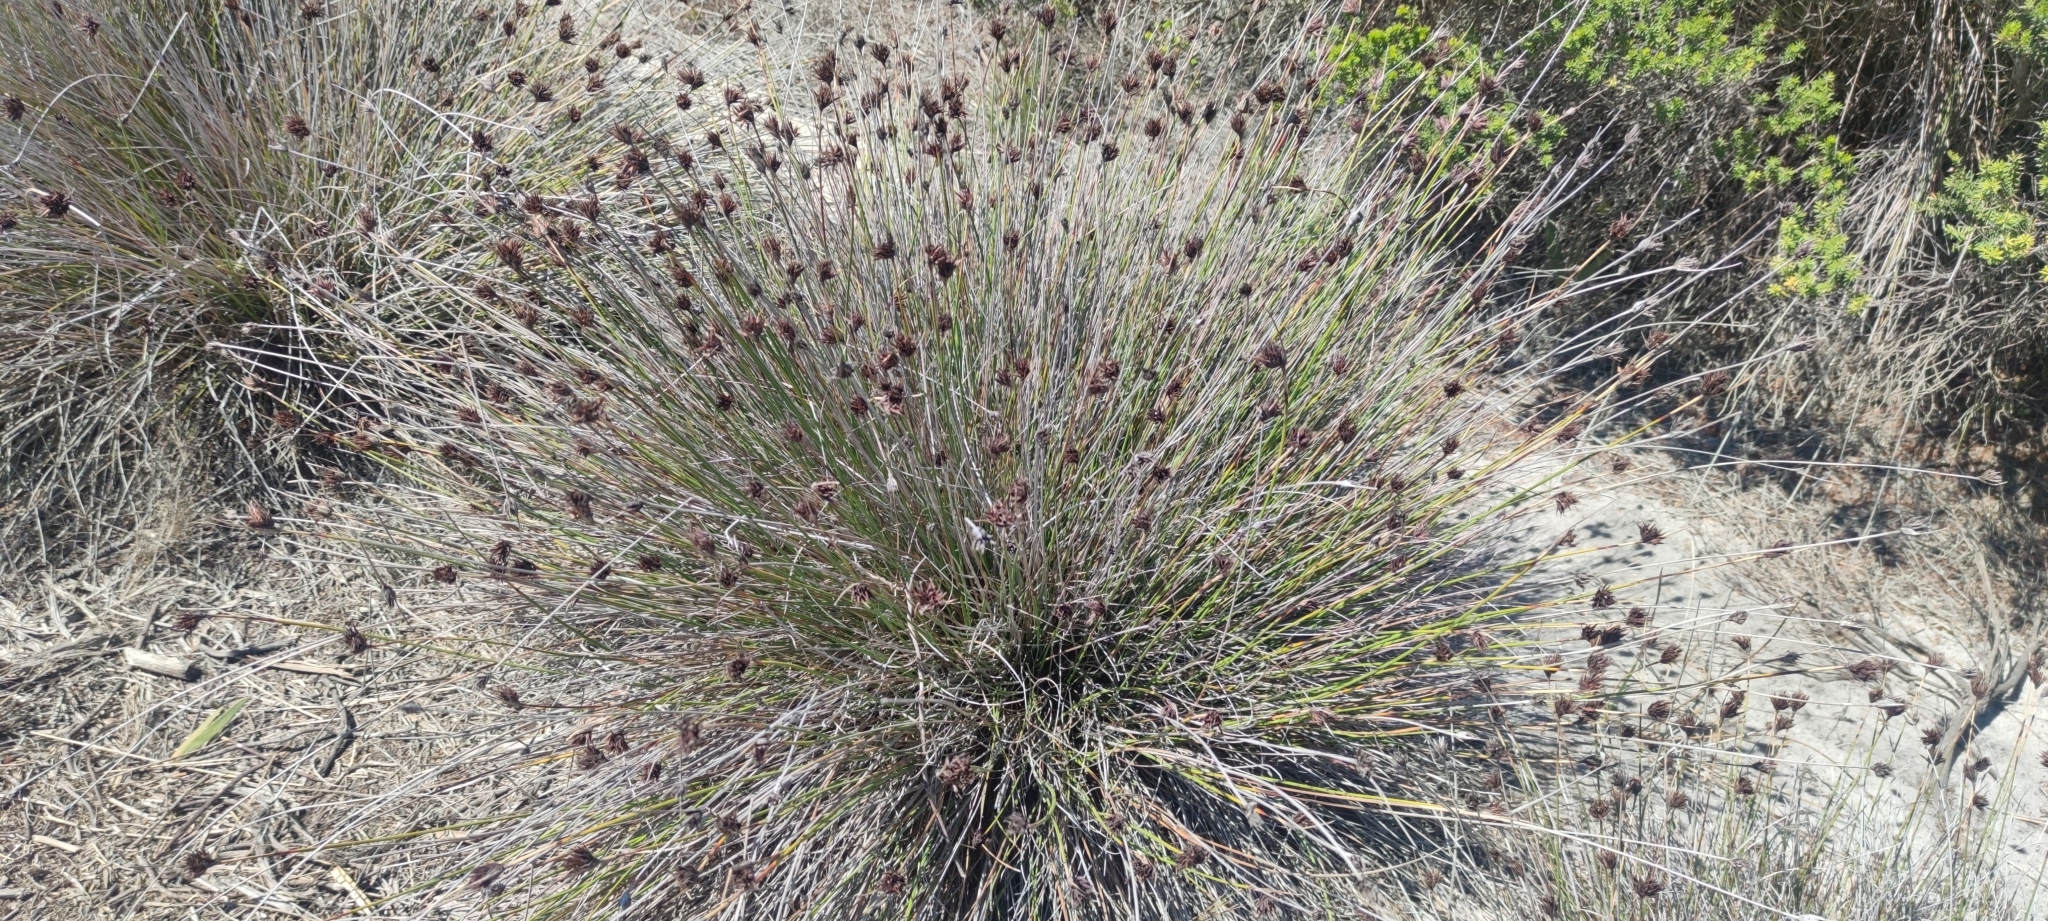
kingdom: Plantae
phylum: Tracheophyta
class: Liliopsida
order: Poales
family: Cyperaceae
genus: Schoenus
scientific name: Schoenus nigricans
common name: Black bog-rush
